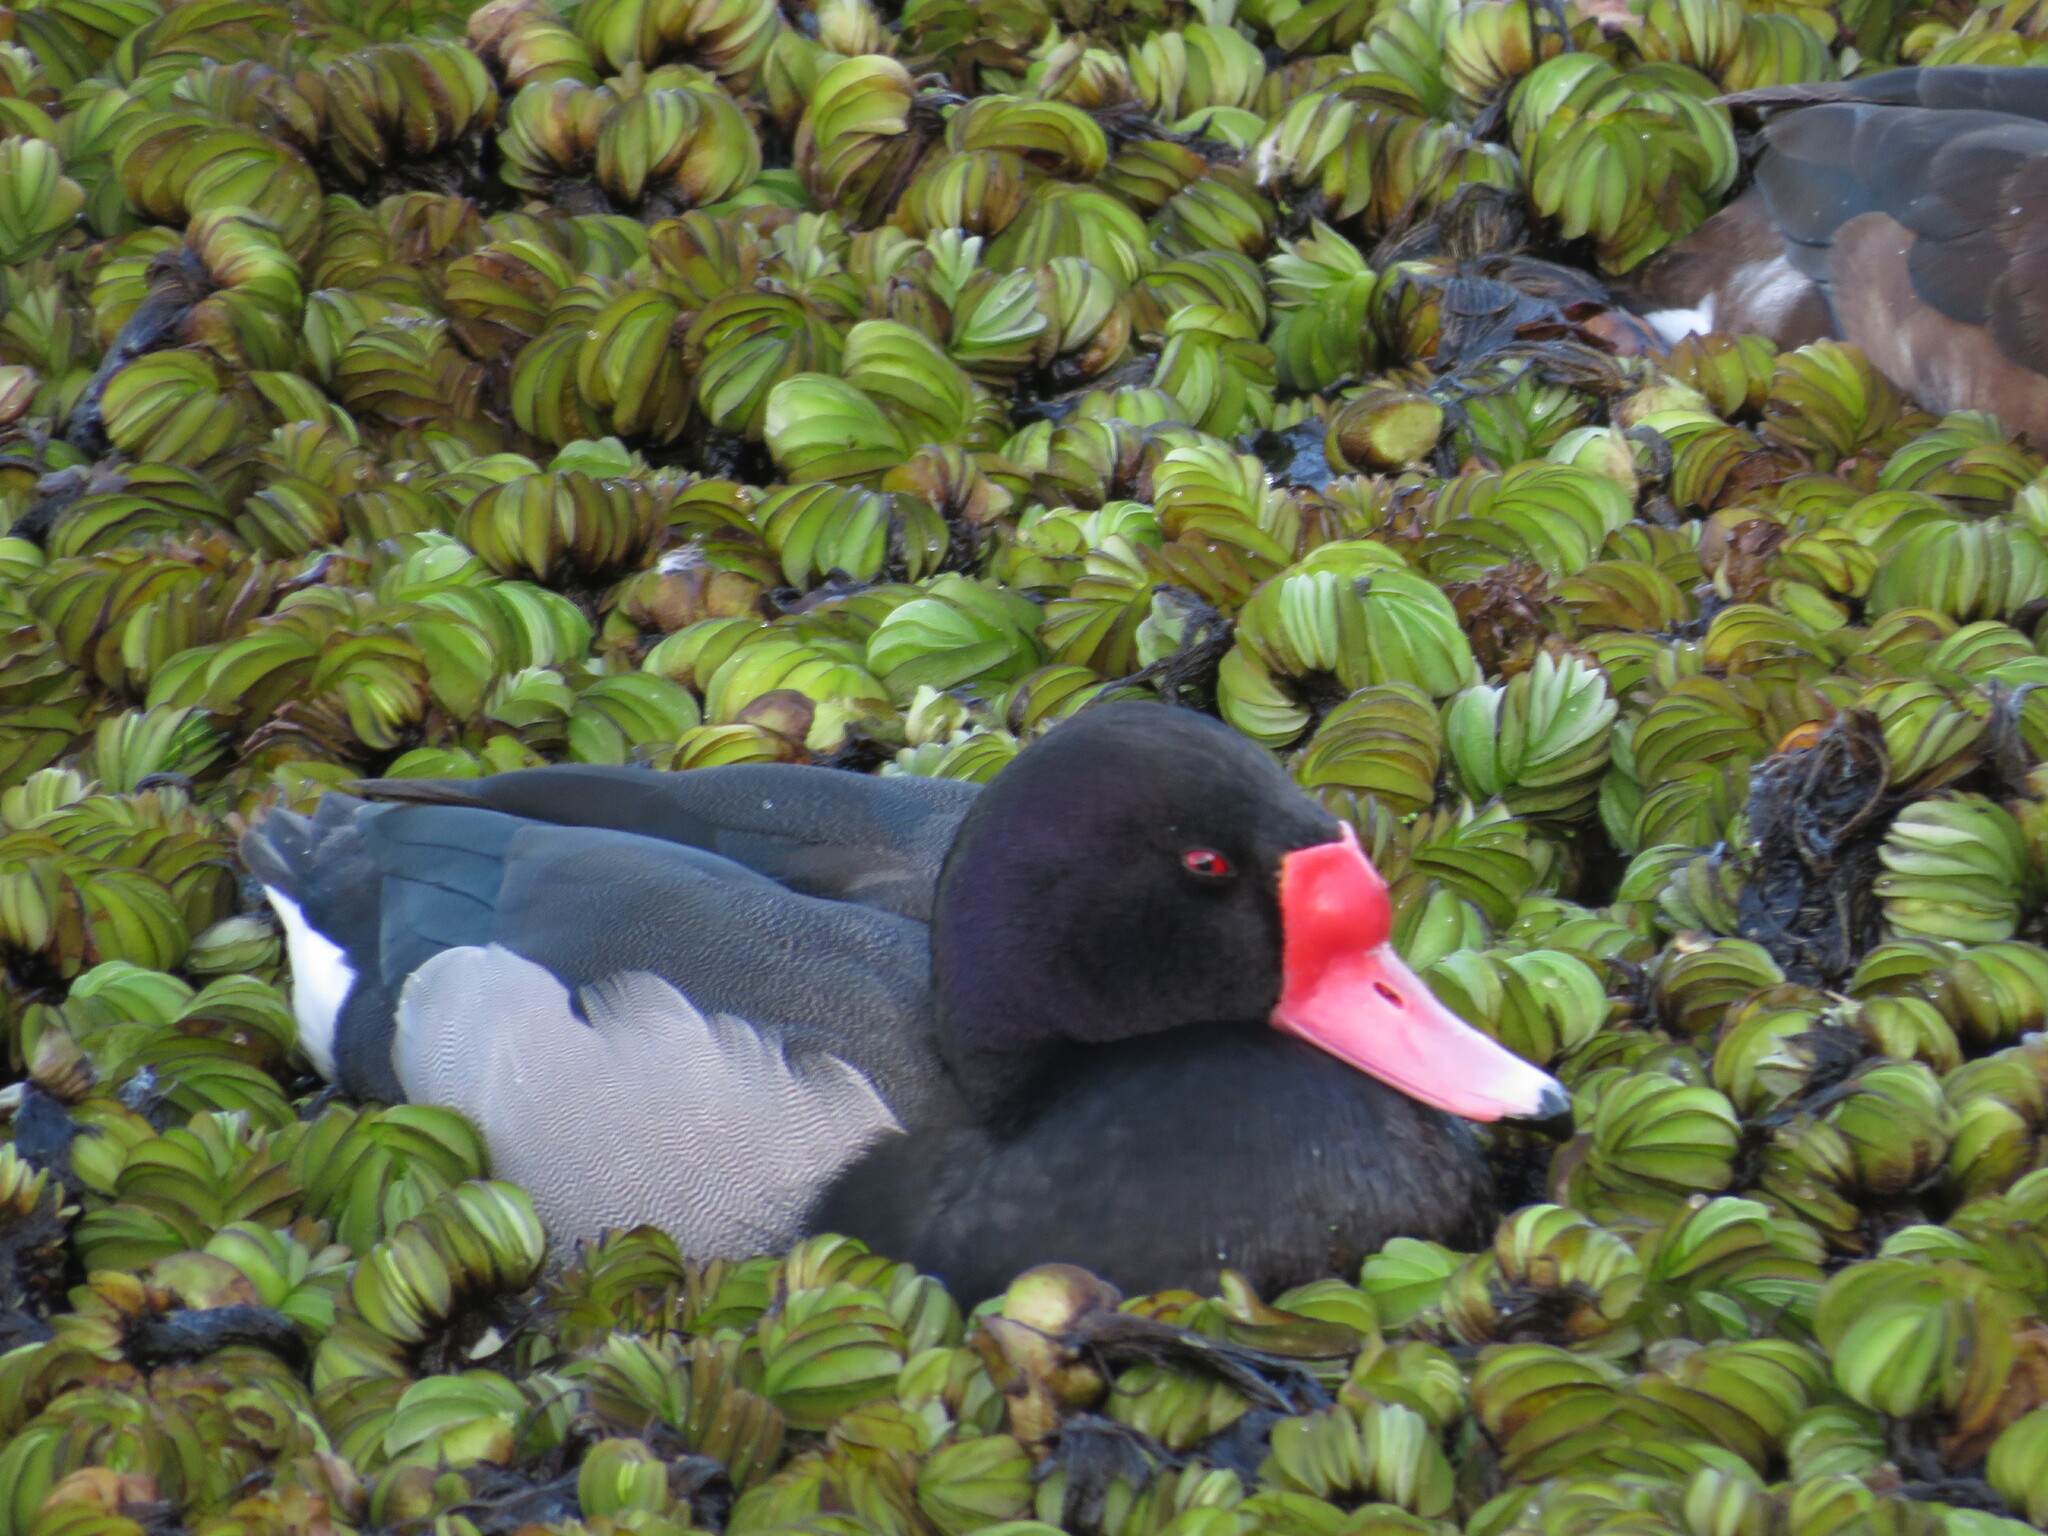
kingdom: Animalia
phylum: Chordata
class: Aves
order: Anseriformes
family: Anatidae
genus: Netta
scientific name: Netta peposaca
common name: Rosy-billed pochard
